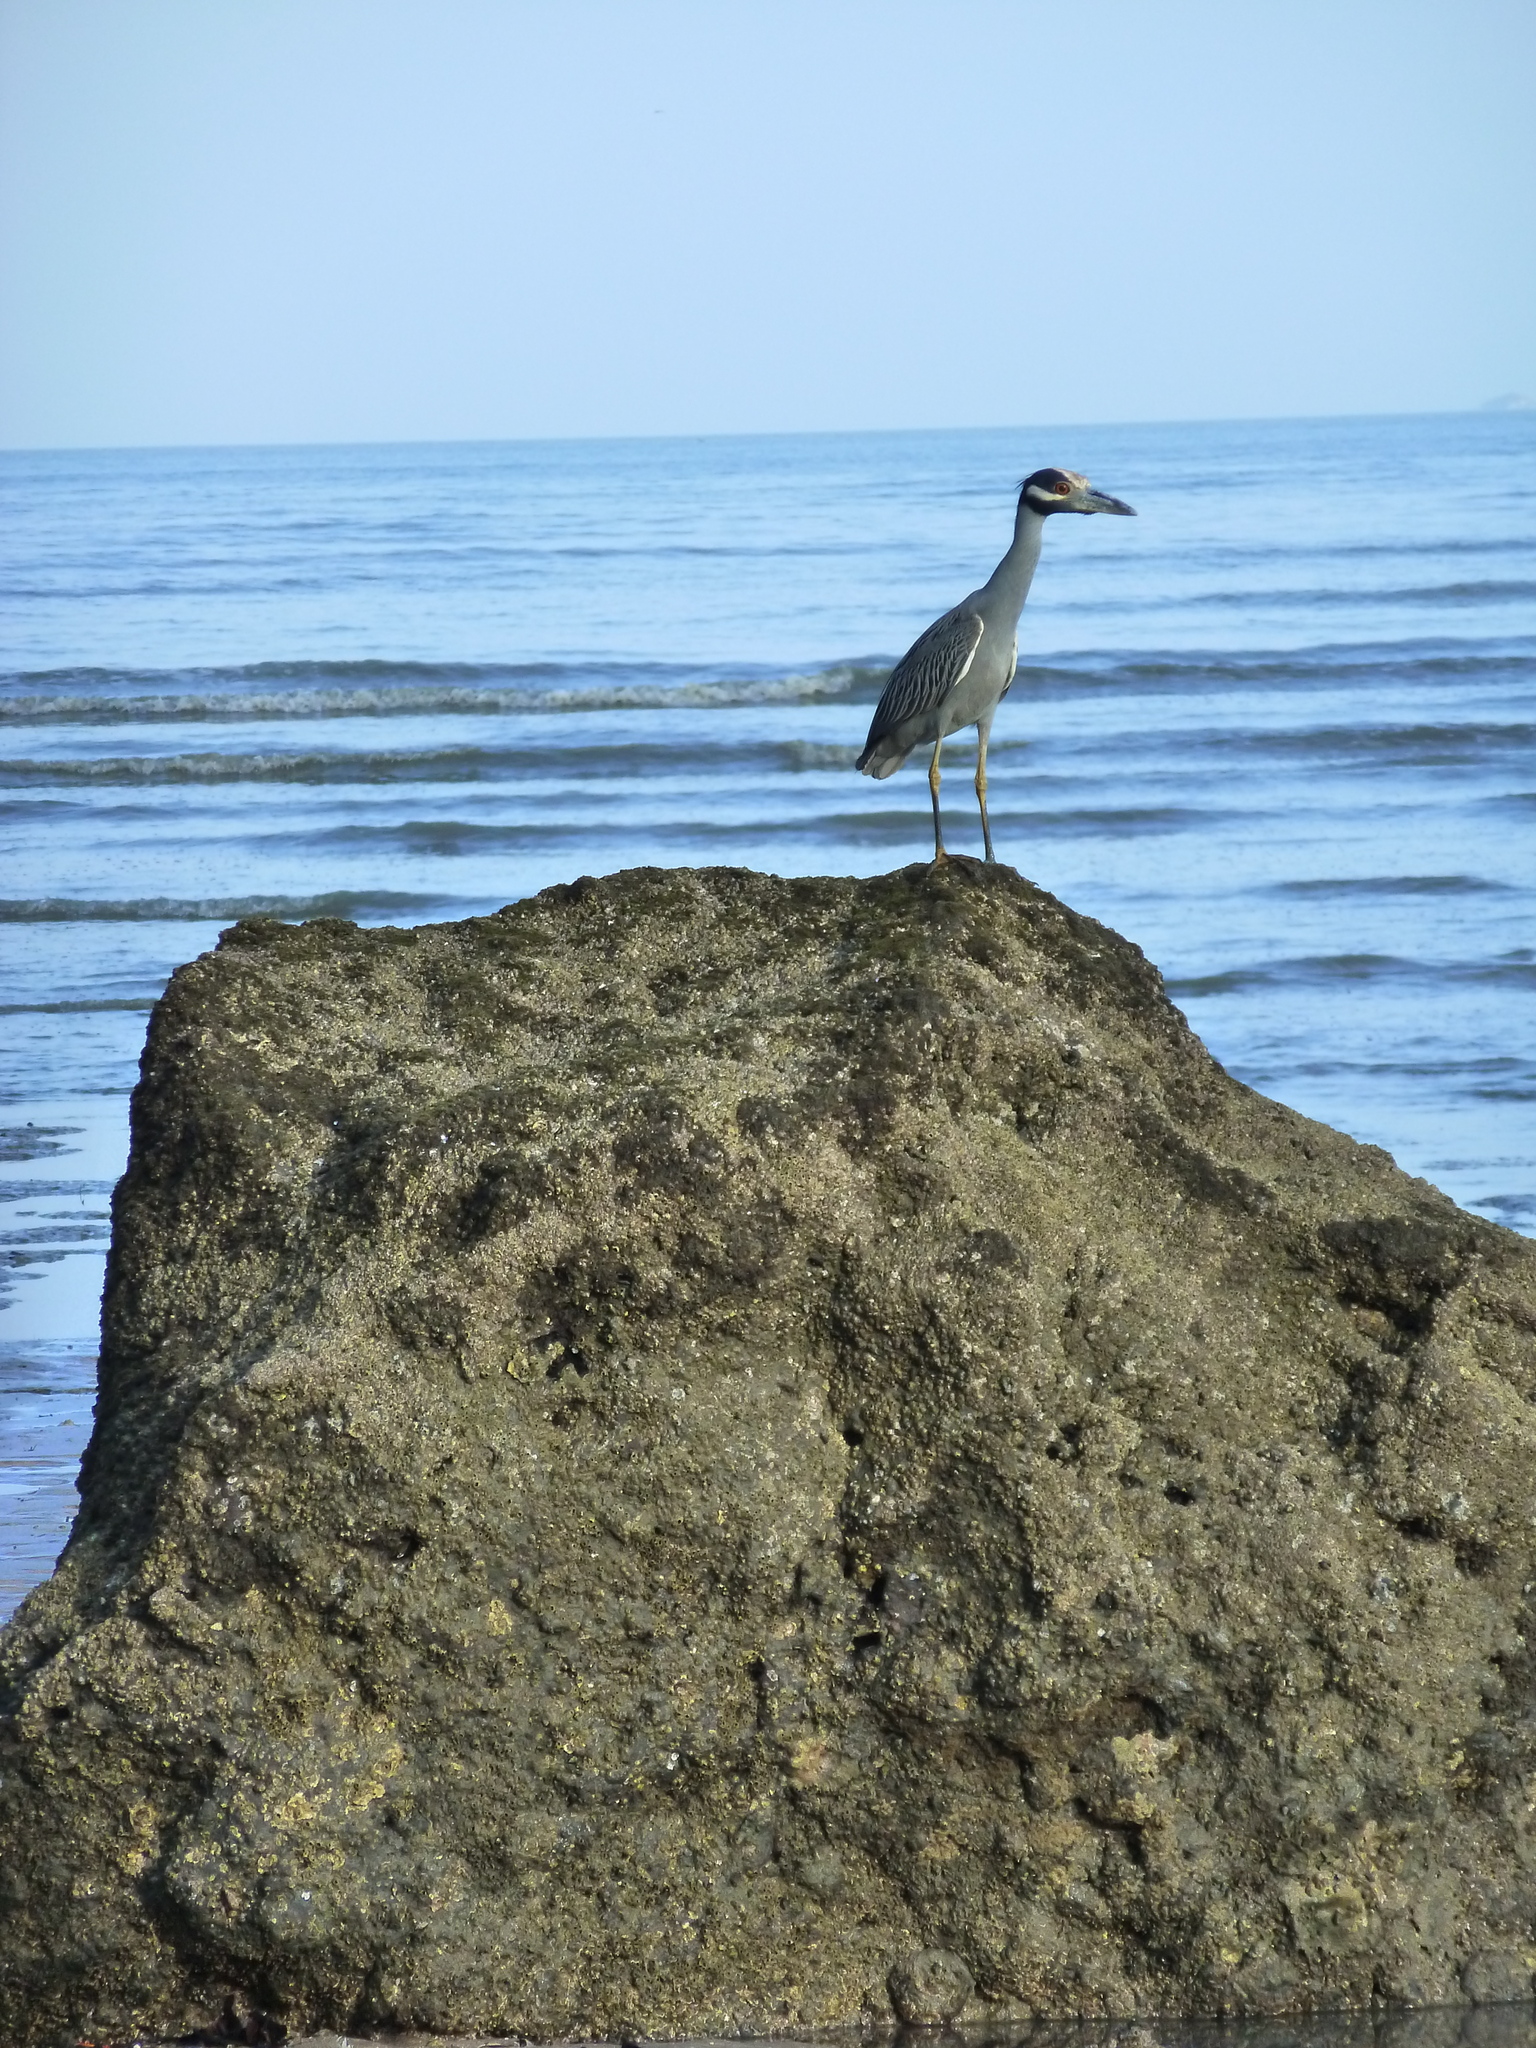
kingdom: Animalia
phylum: Chordata
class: Aves
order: Pelecaniformes
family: Ardeidae
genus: Nyctanassa
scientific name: Nyctanassa violacea
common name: Yellow-crowned night heron
